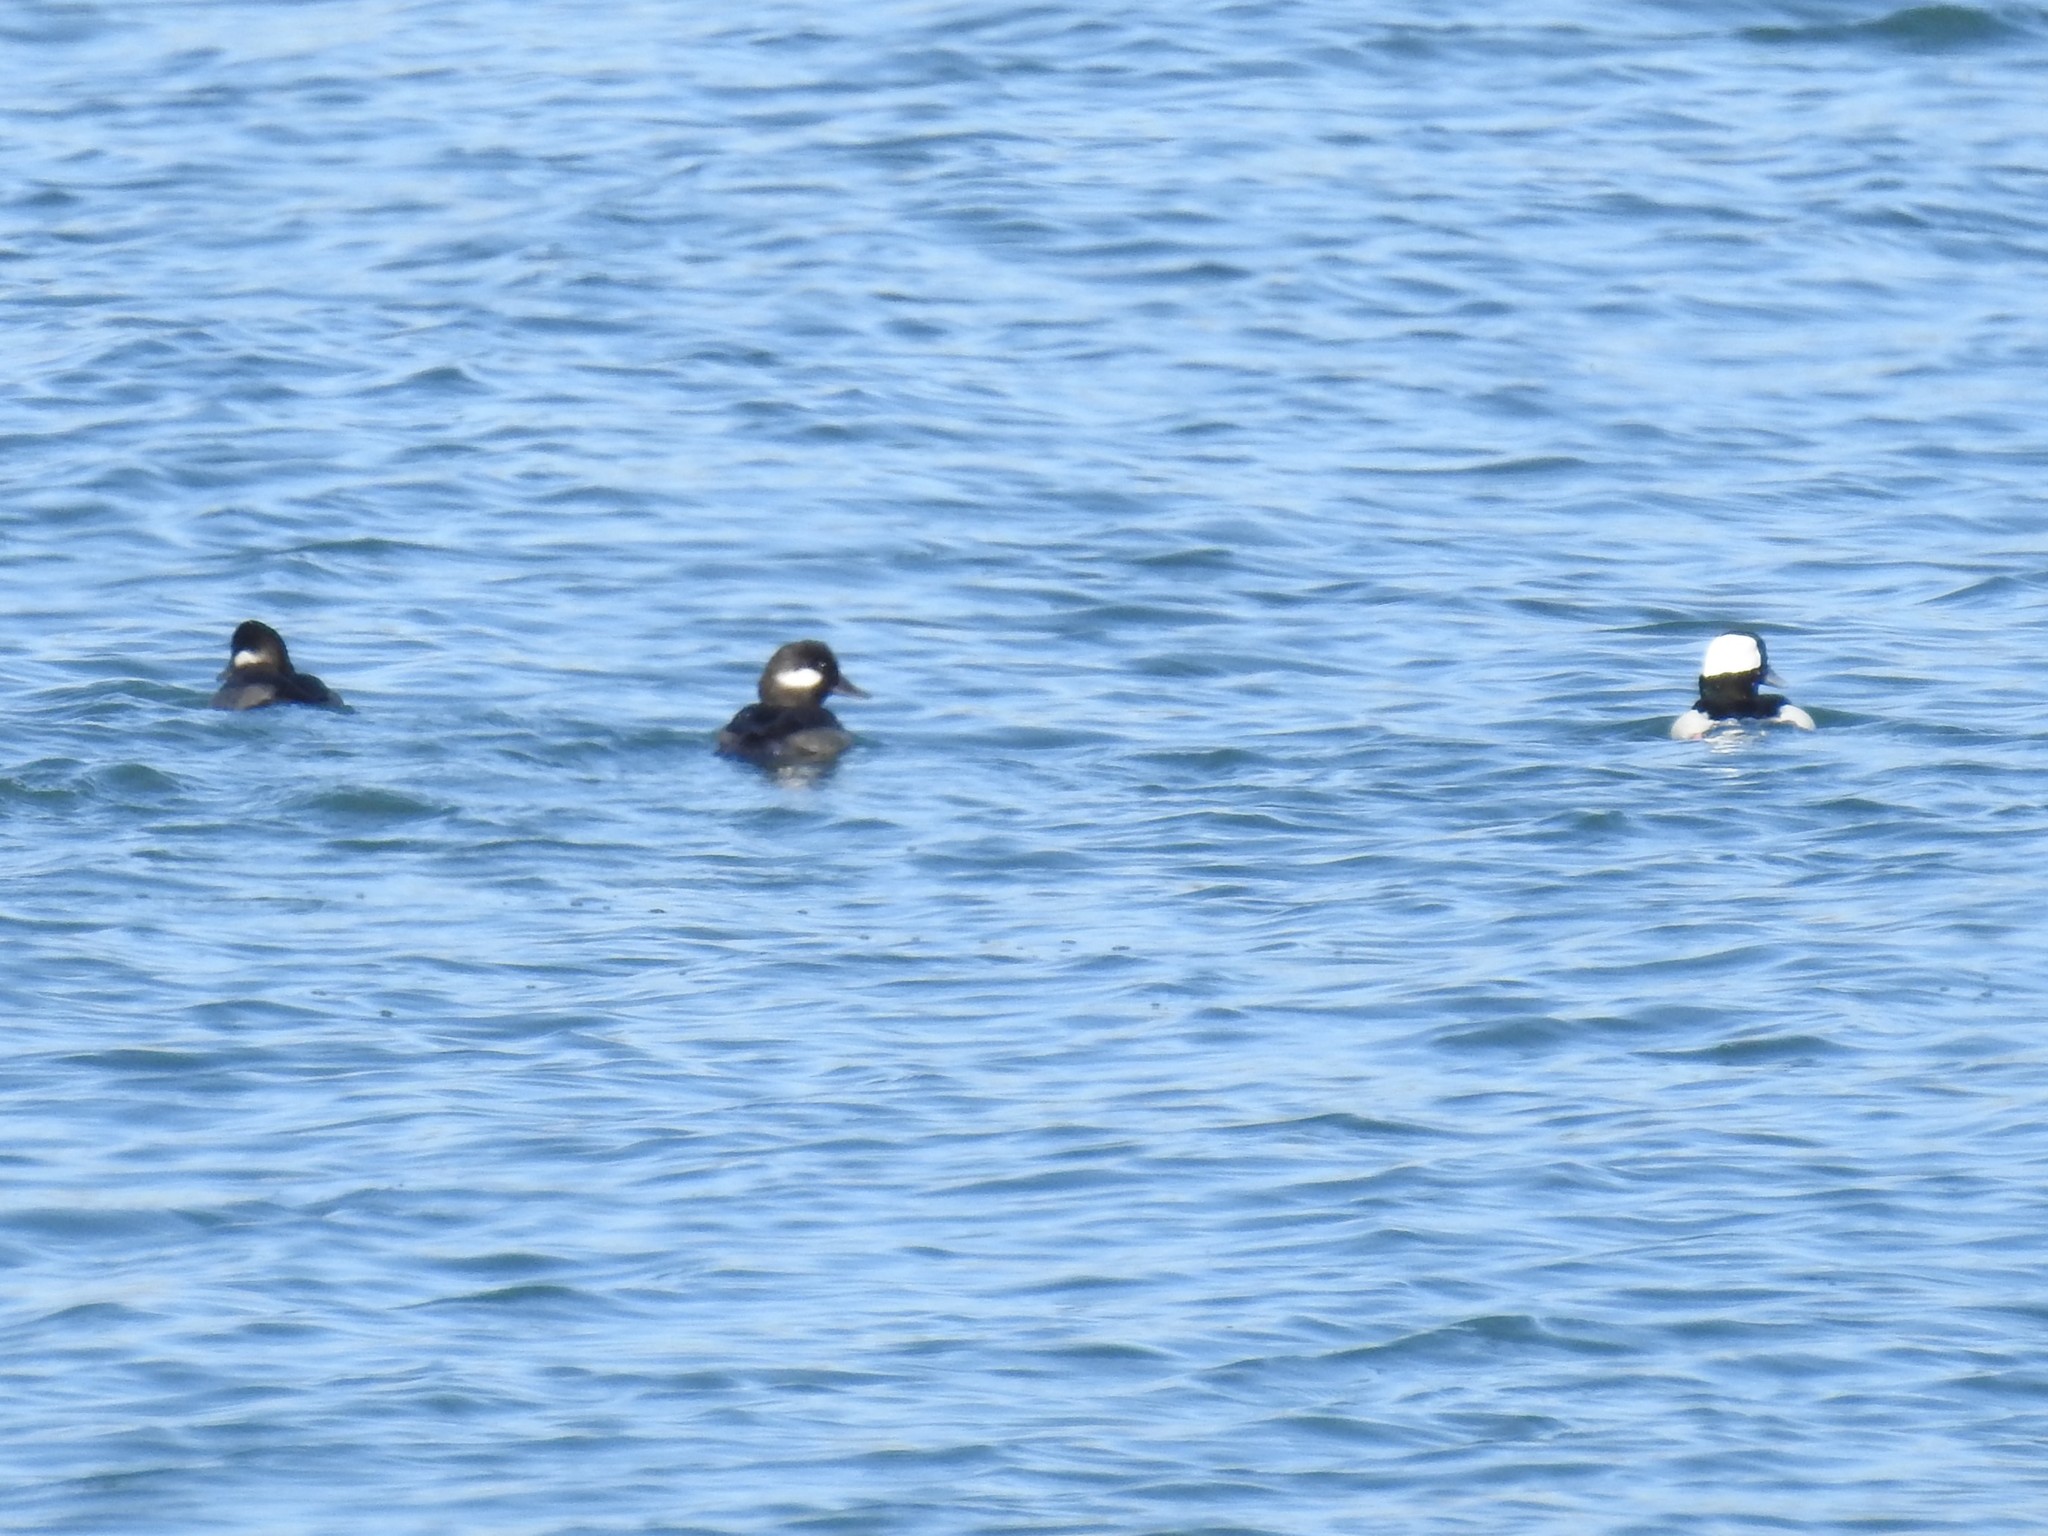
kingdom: Animalia
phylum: Chordata
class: Aves
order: Anseriformes
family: Anatidae
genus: Bucephala
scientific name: Bucephala albeola
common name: Bufflehead
